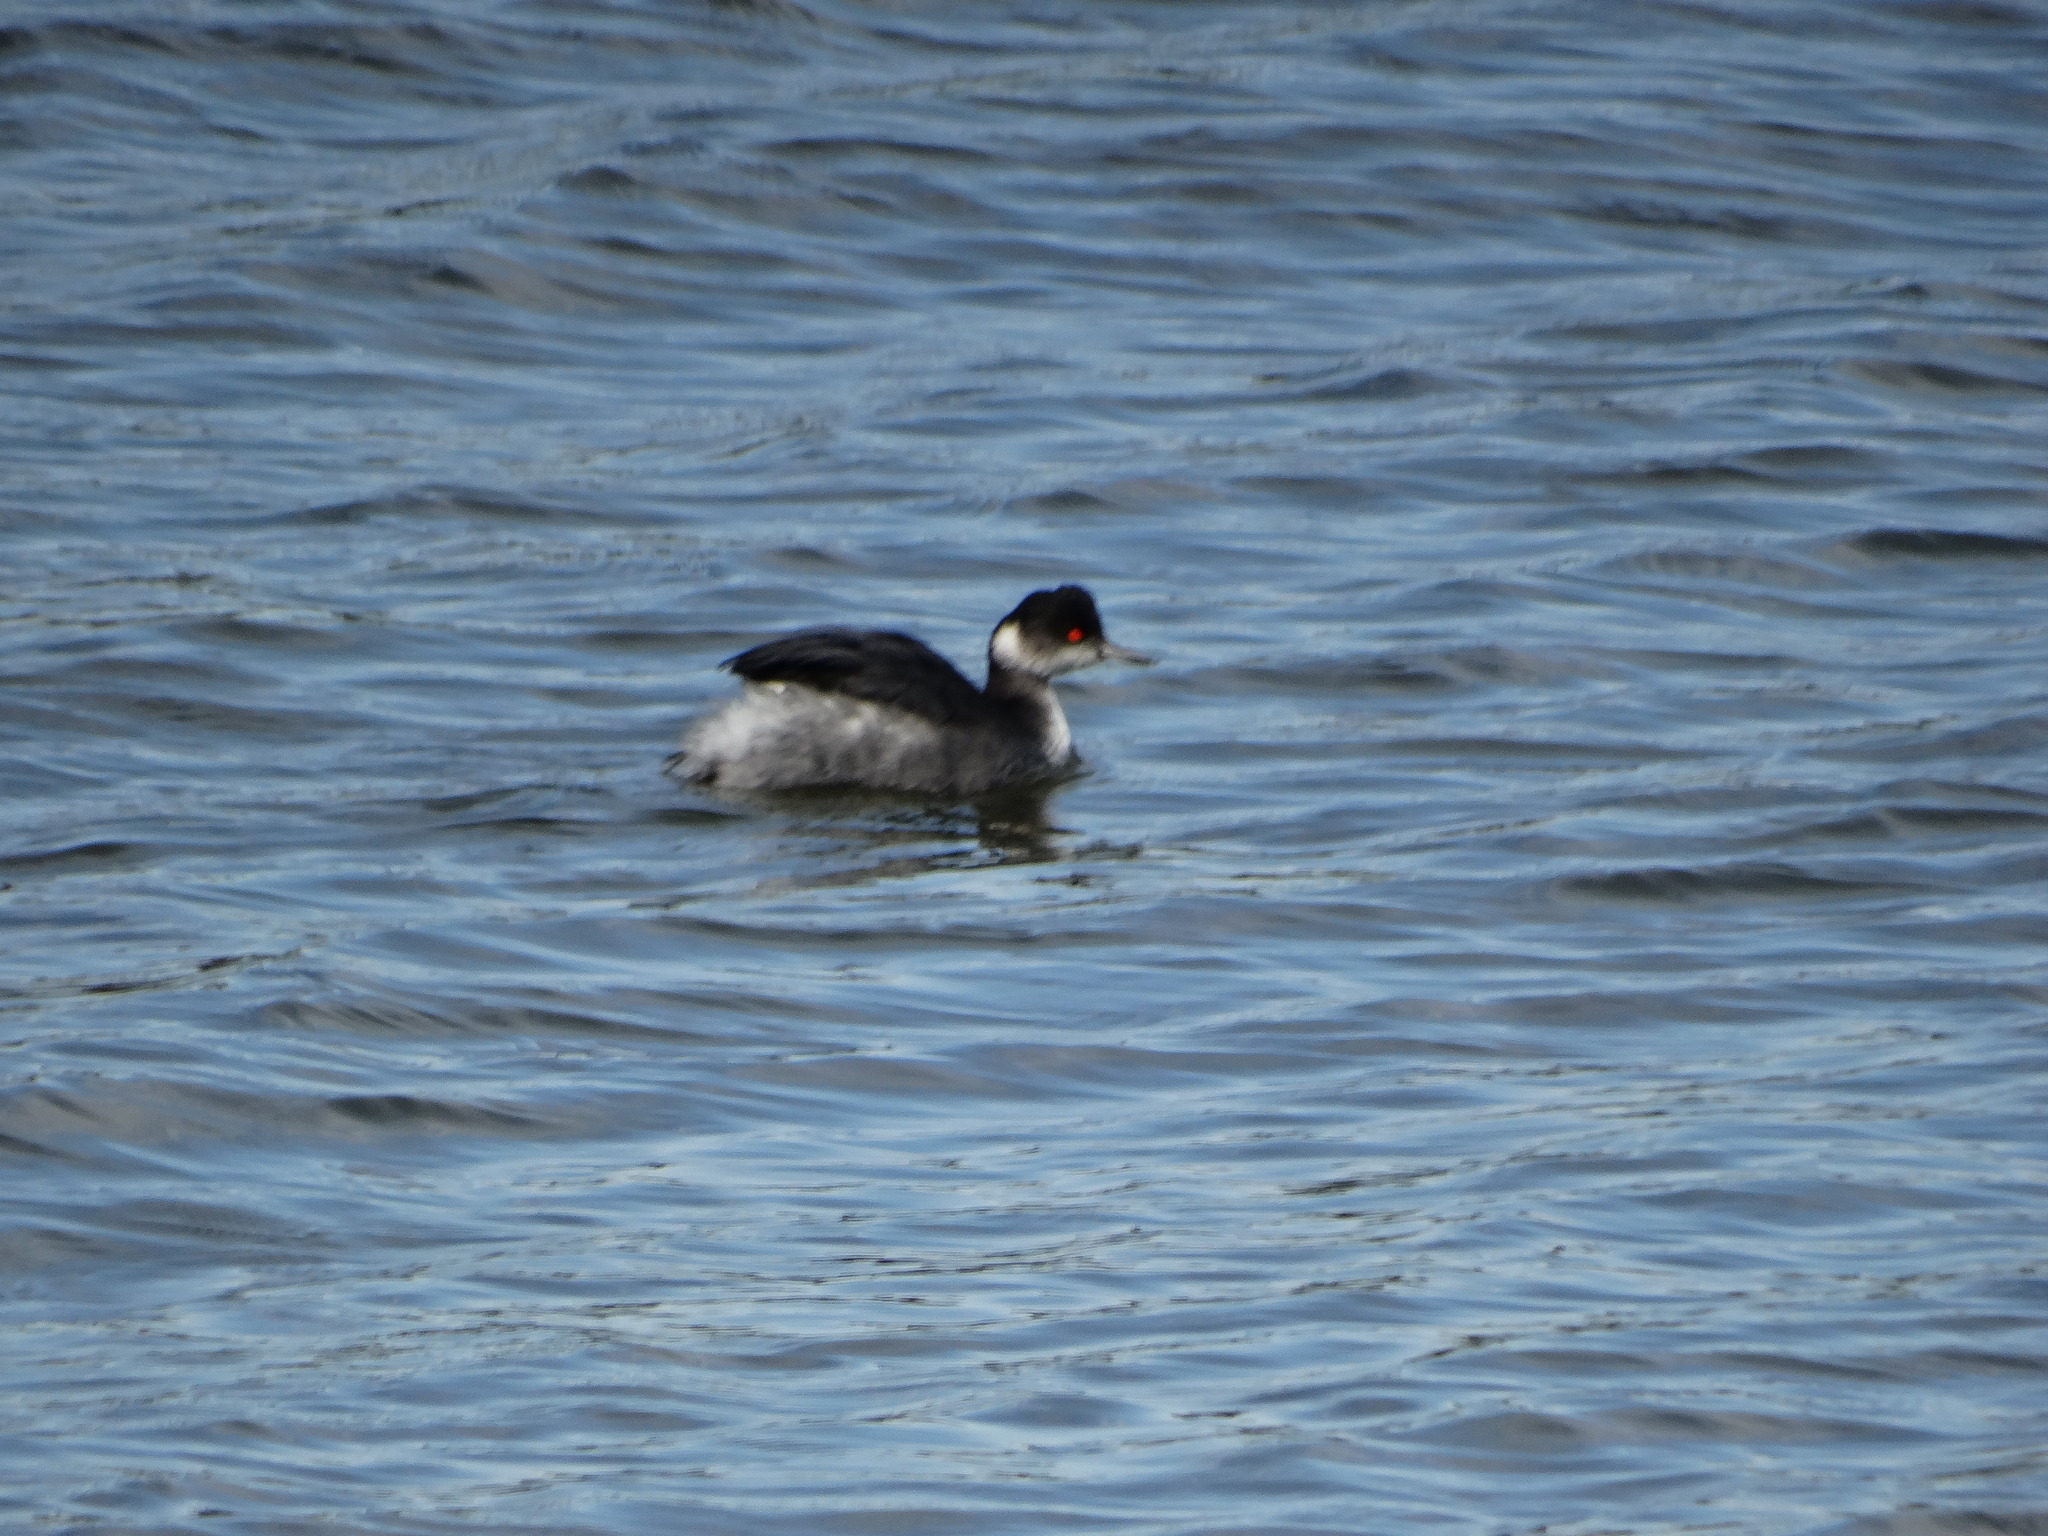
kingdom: Animalia
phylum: Chordata
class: Aves
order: Podicipediformes
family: Podicipedidae
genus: Podiceps
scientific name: Podiceps nigricollis
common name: Black-necked grebe
